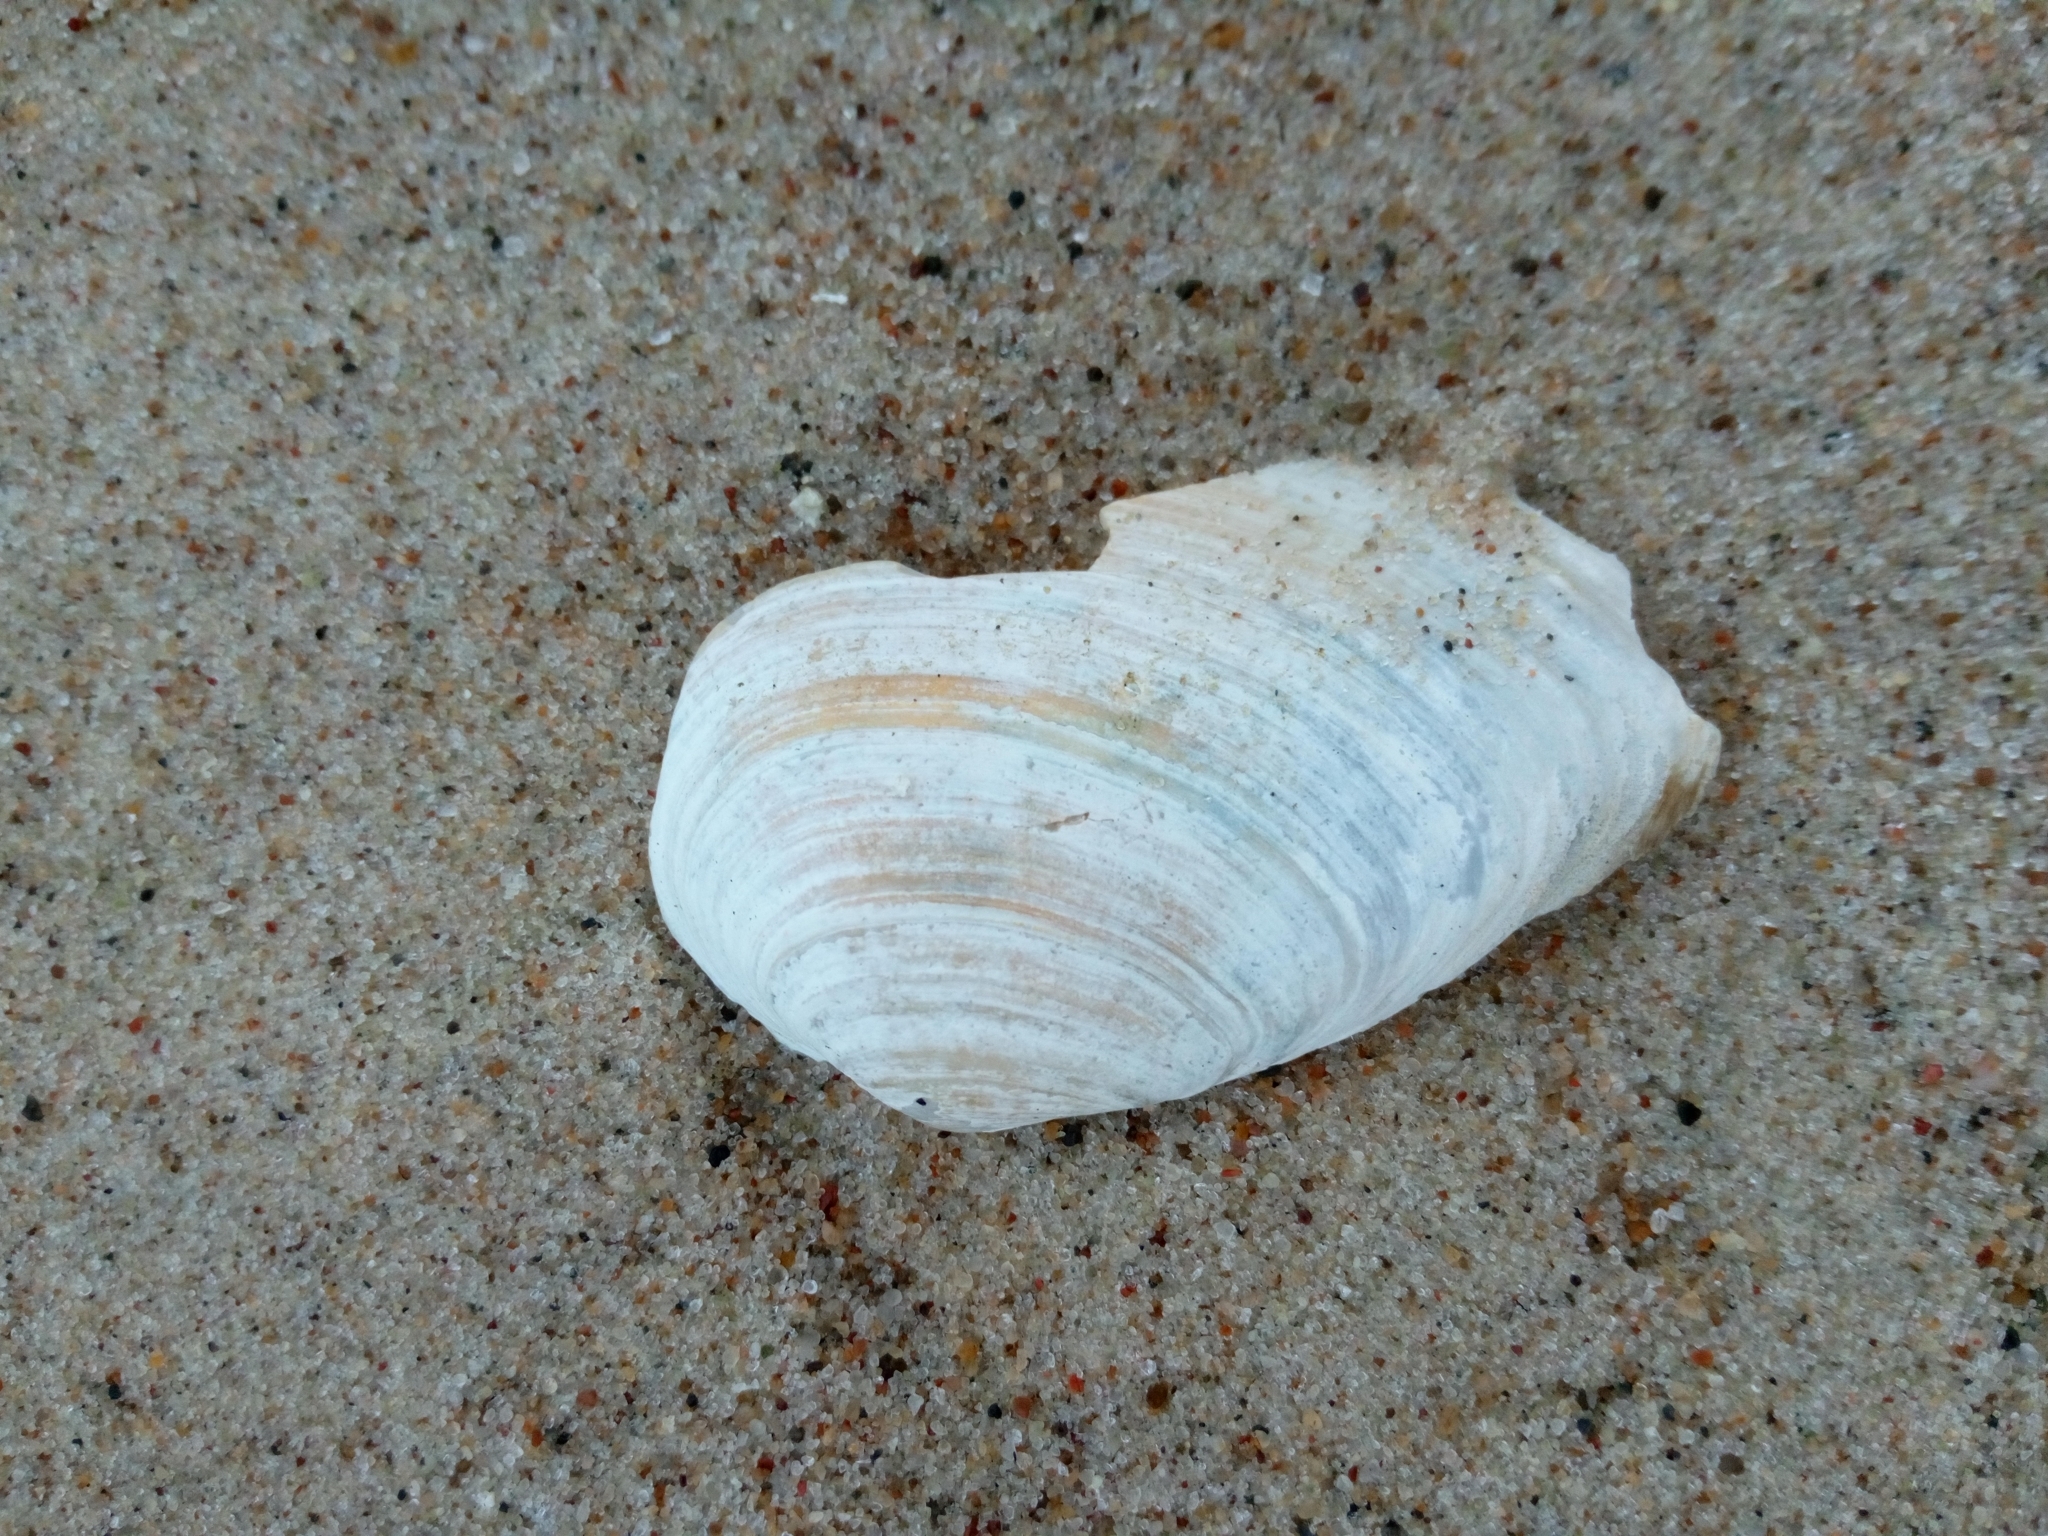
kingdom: Animalia
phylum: Mollusca
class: Bivalvia
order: Myida
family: Myidae
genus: Mya
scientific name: Mya arenaria
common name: Soft-shelled clam
